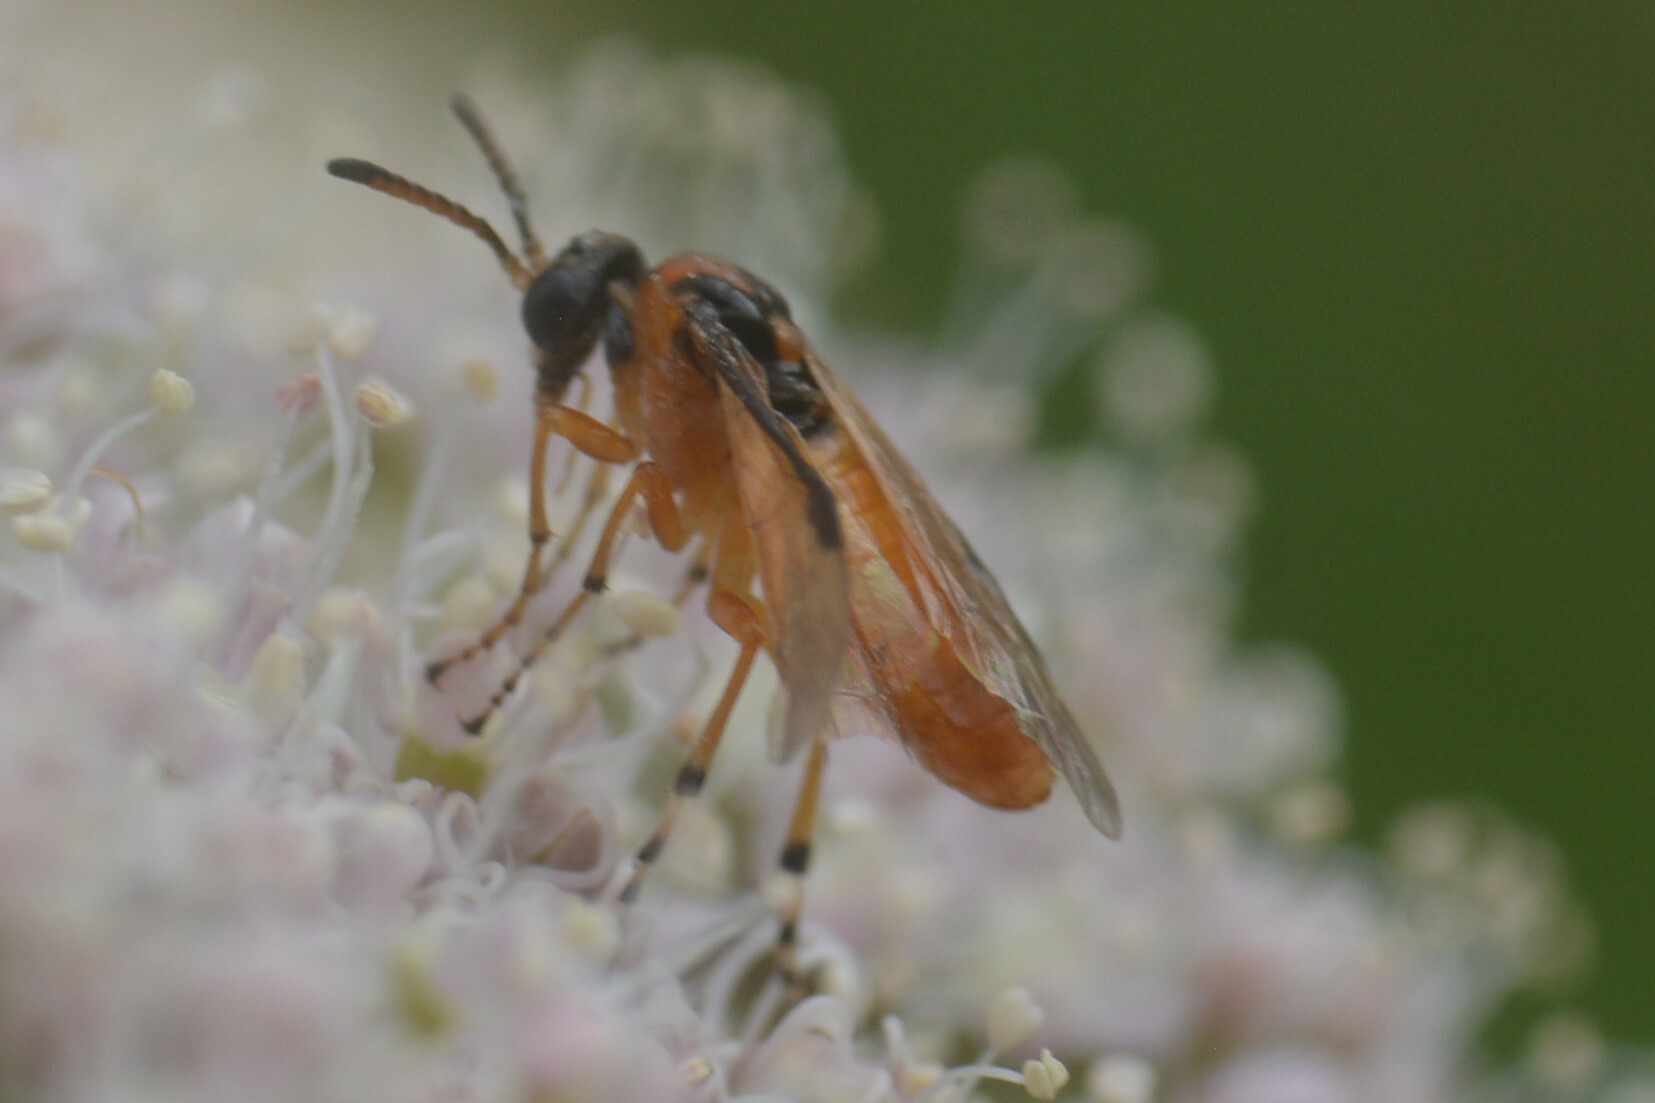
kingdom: Animalia
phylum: Arthropoda
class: Insecta
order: Hymenoptera
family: Tenthredinidae
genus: Athalia
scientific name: Athalia rosae
